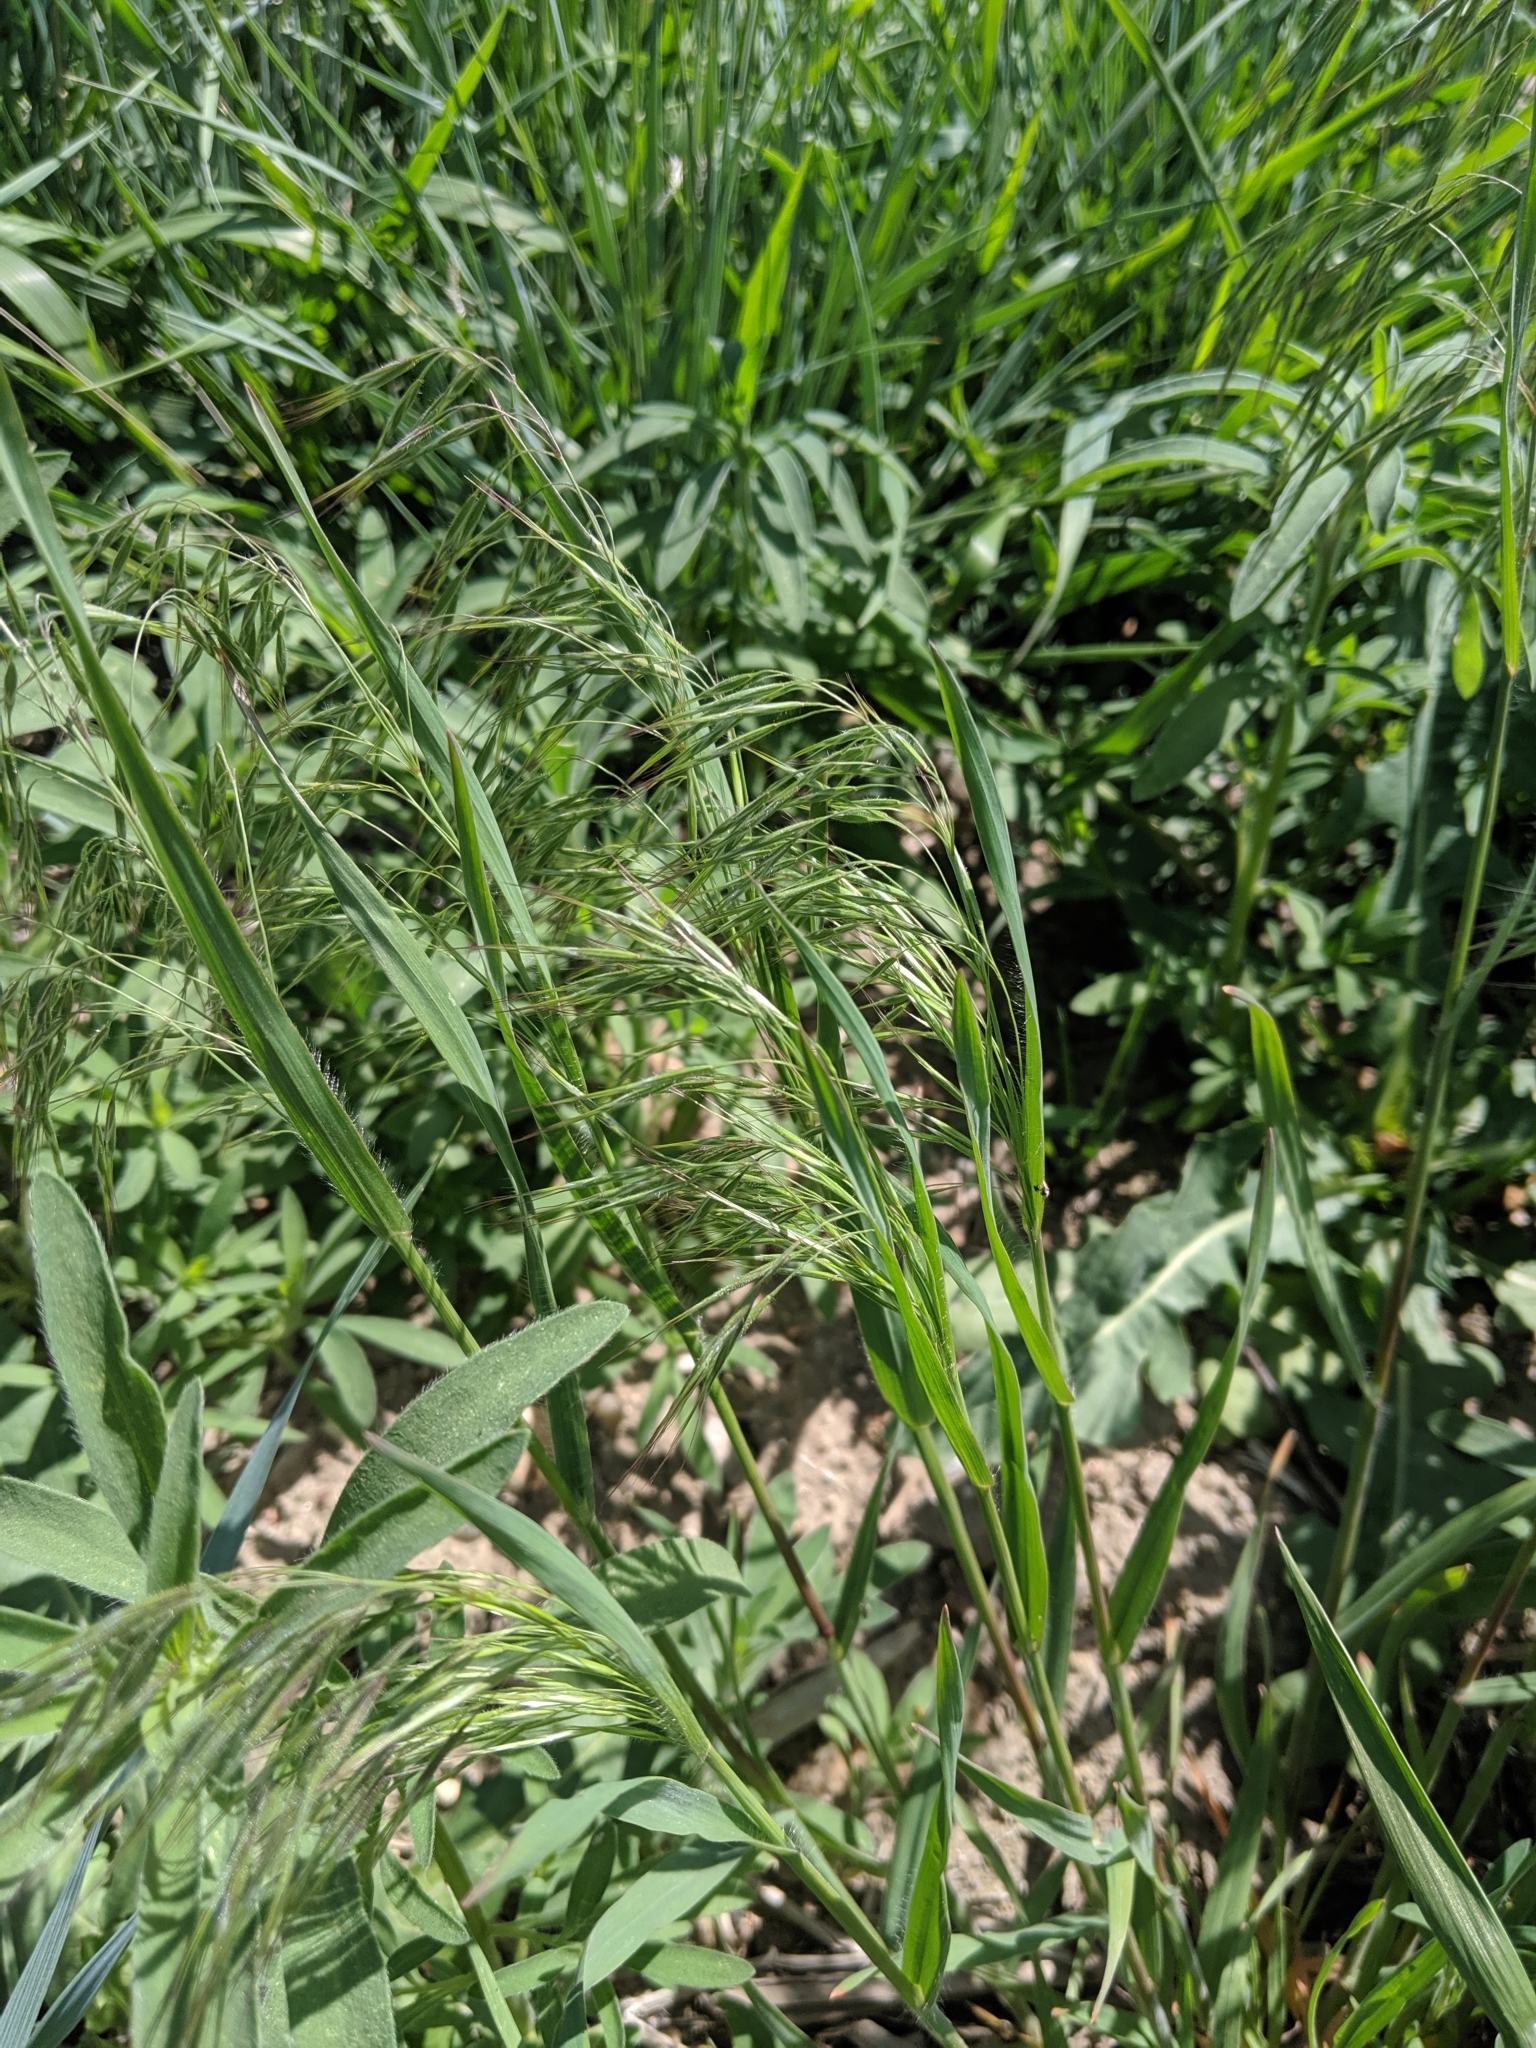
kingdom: Plantae
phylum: Tracheophyta
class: Liliopsida
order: Poales
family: Poaceae
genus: Bromus
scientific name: Bromus tectorum
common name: Cheatgrass
